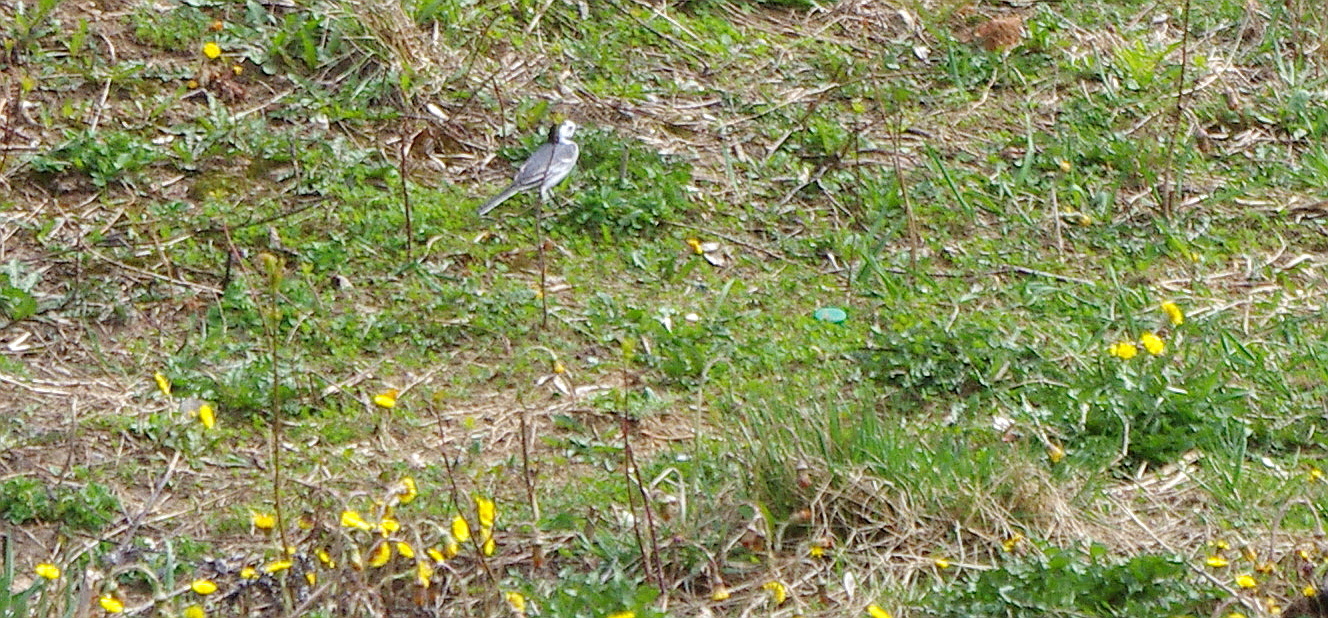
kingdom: Animalia
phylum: Chordata
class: Aves
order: Passeriformes
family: Motacillidae
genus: Motacilla
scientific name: Motacilla alba
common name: White wagtail
